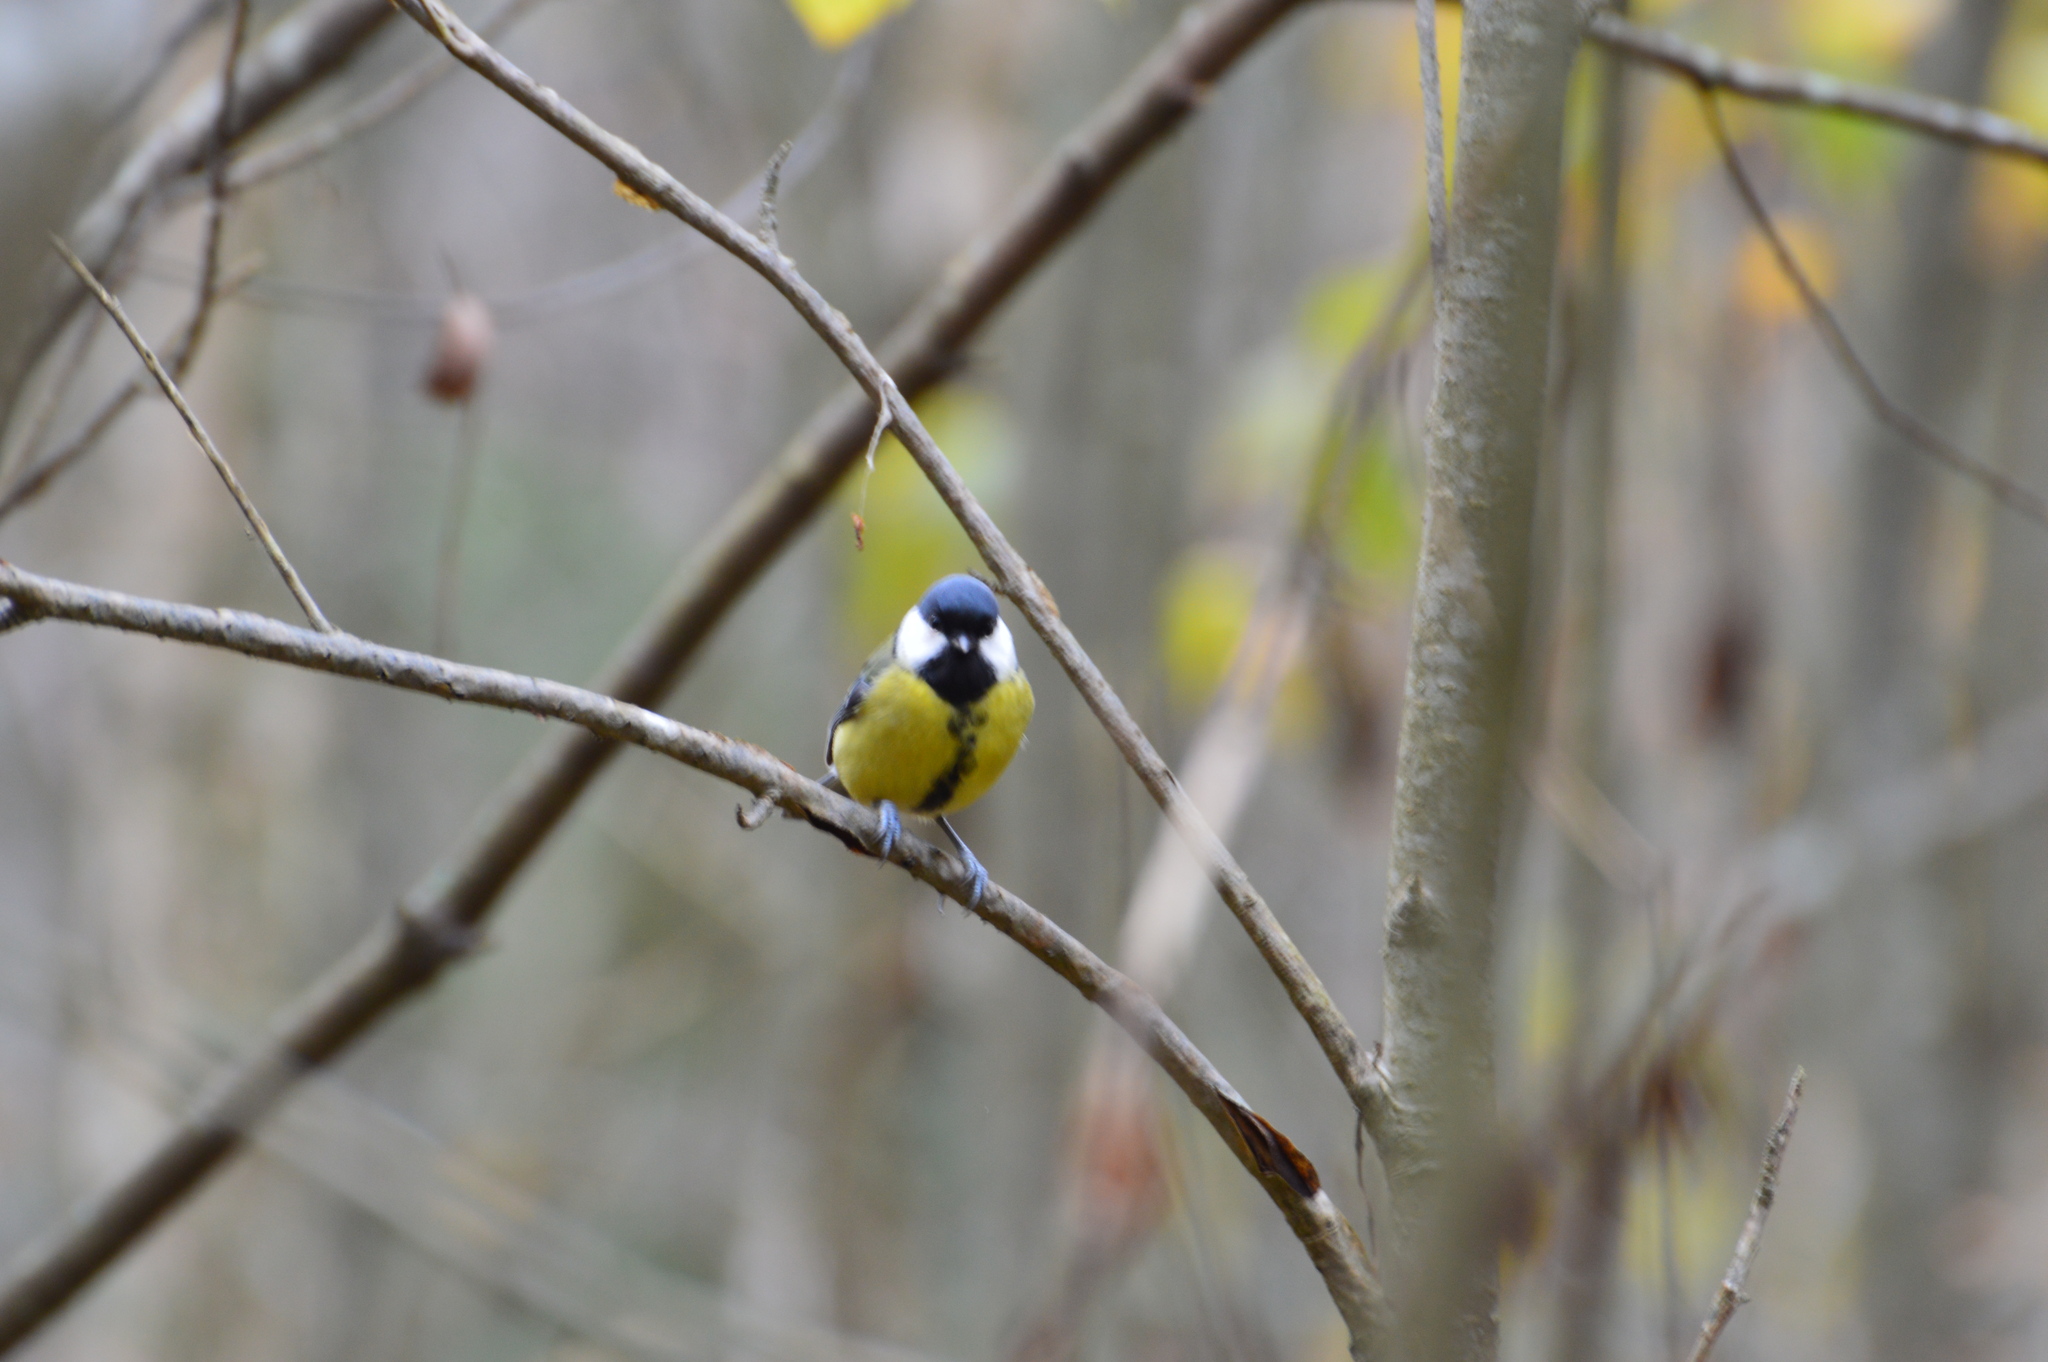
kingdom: Animalia
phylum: Chordata
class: Aves
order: Passeriformes
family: Paridae
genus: Parus
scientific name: Parus major
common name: Great tit
